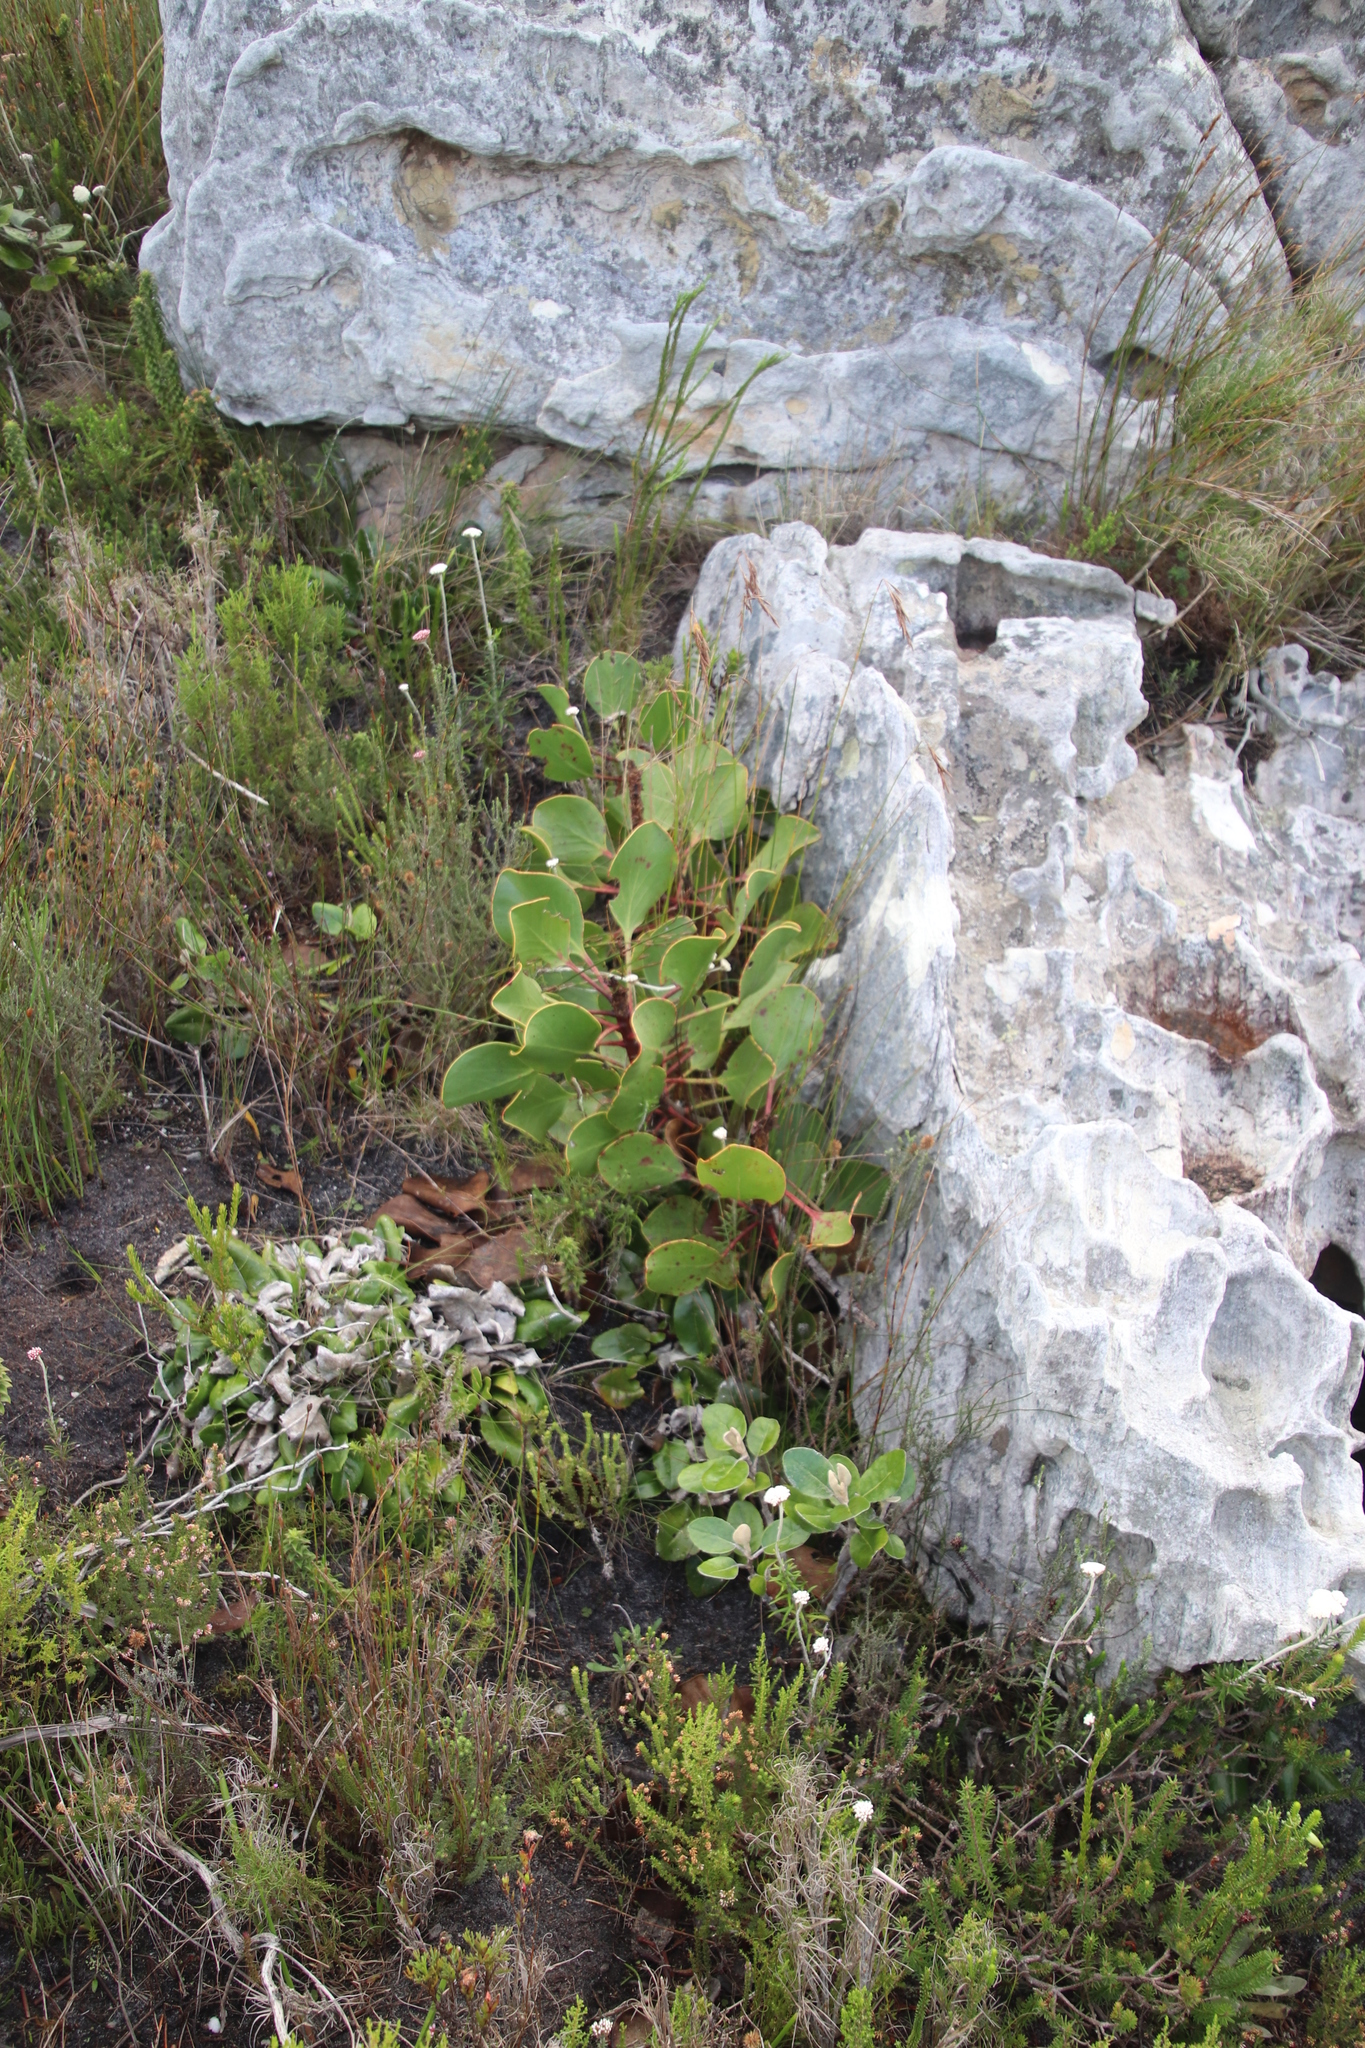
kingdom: Plantae
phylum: Tracheophyta
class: Magnoliopsida
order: Proteales
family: Proteaceae
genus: Protea
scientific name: Protea cynaroides
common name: King protea
